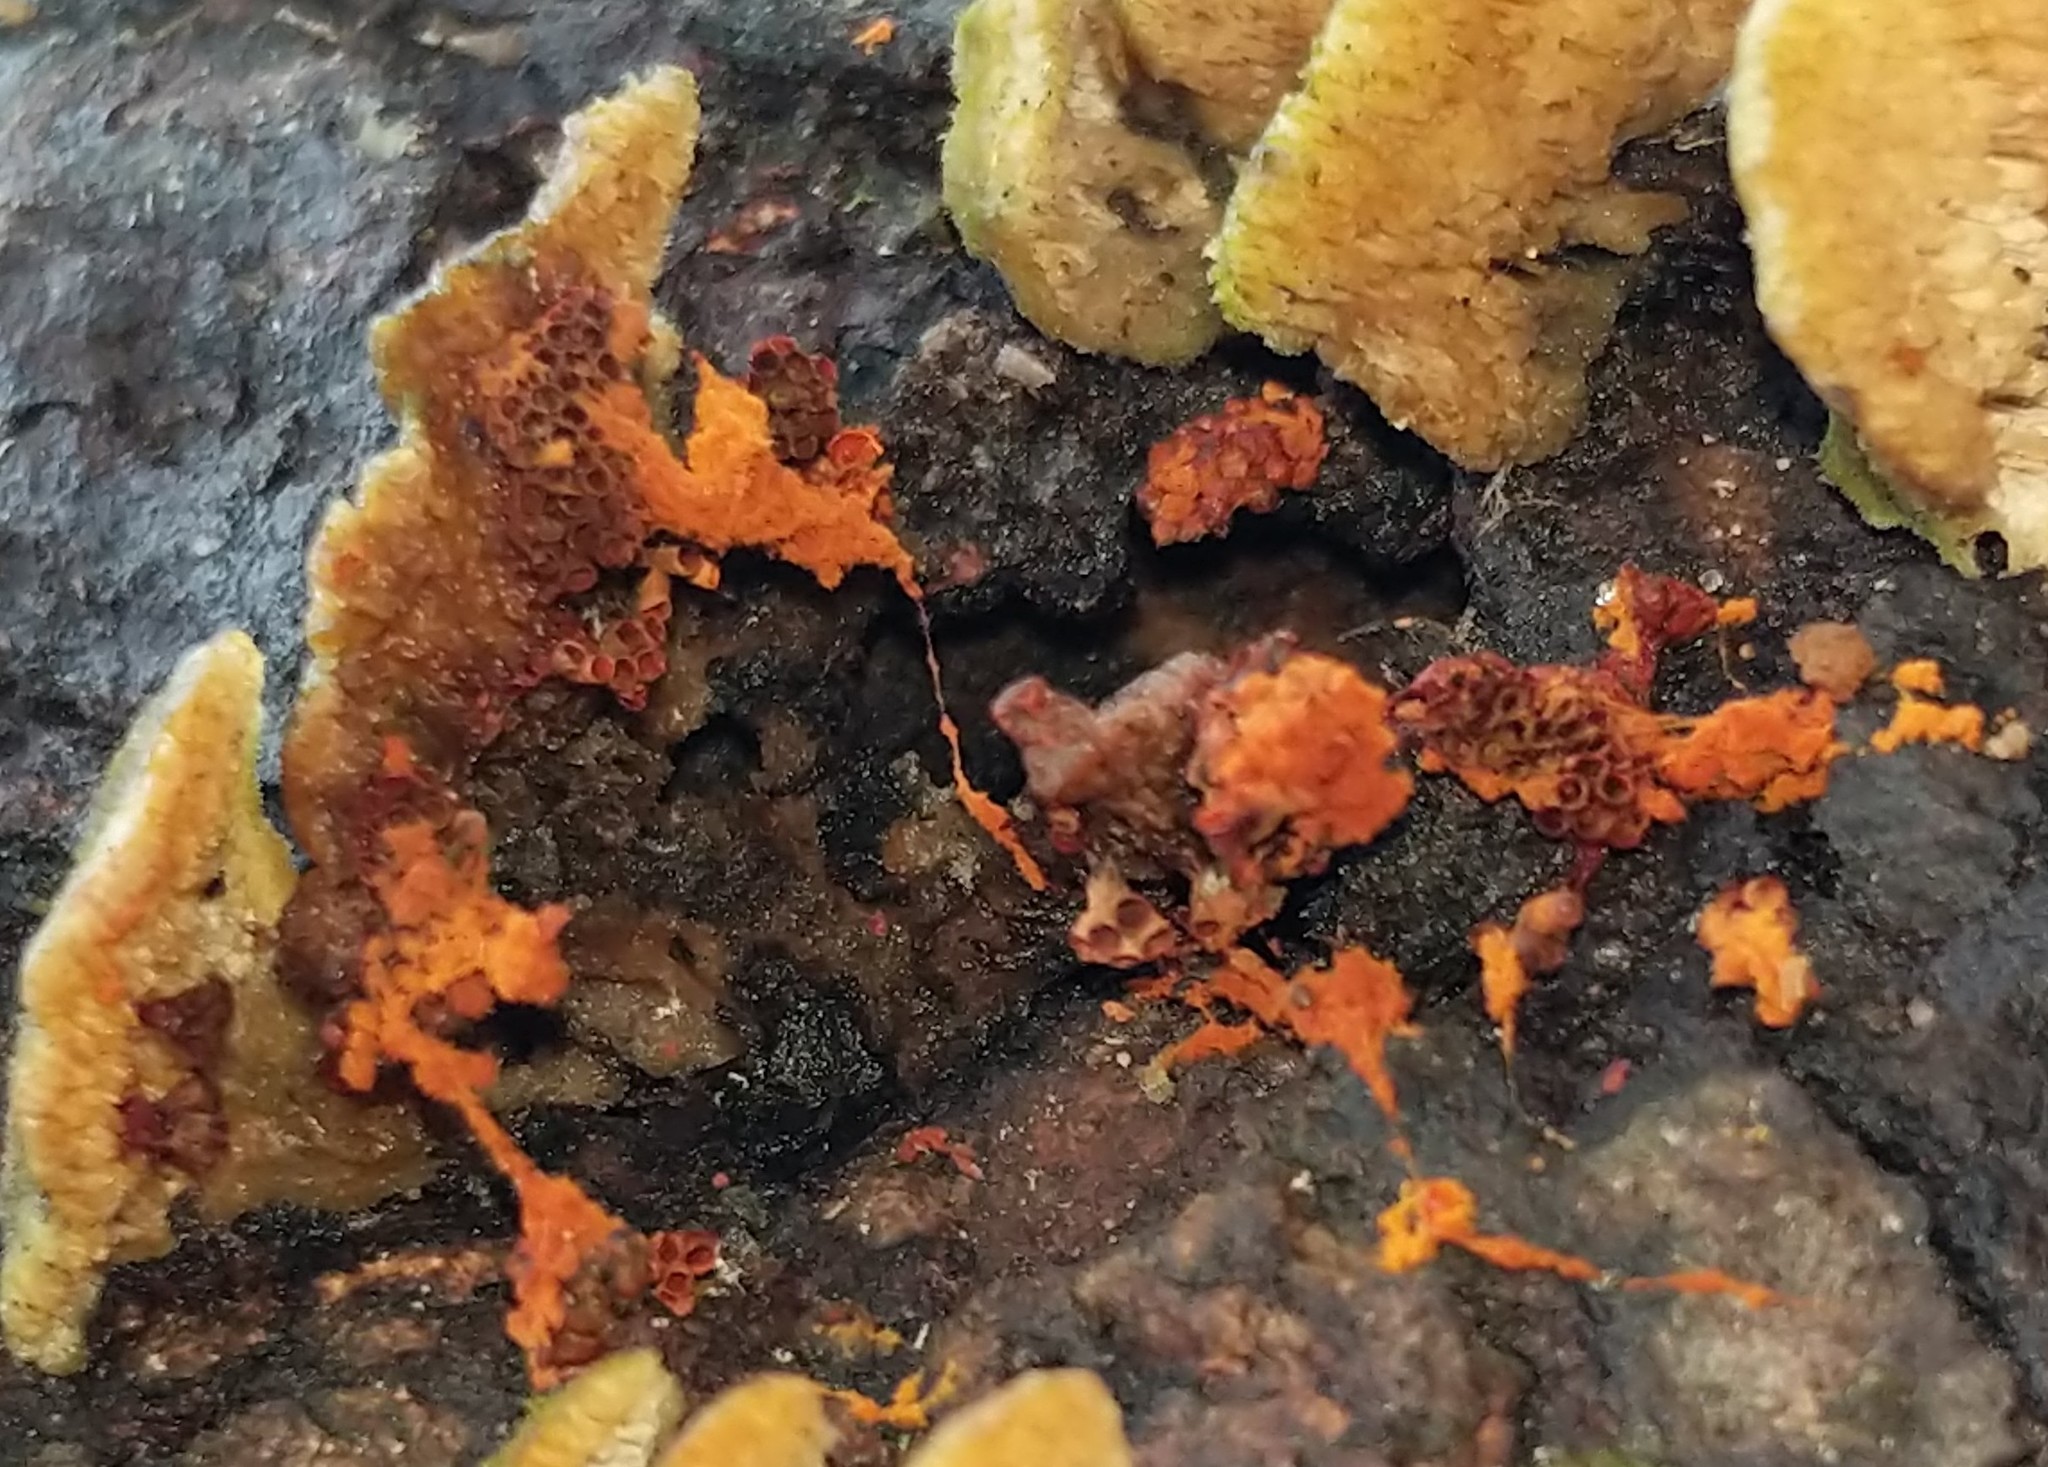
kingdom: Protozoa
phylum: Mycetozoa
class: Myxomycetes
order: Trichiales
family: Trichiaceae
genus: Metatrichia
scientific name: Metatrichia vesparia
